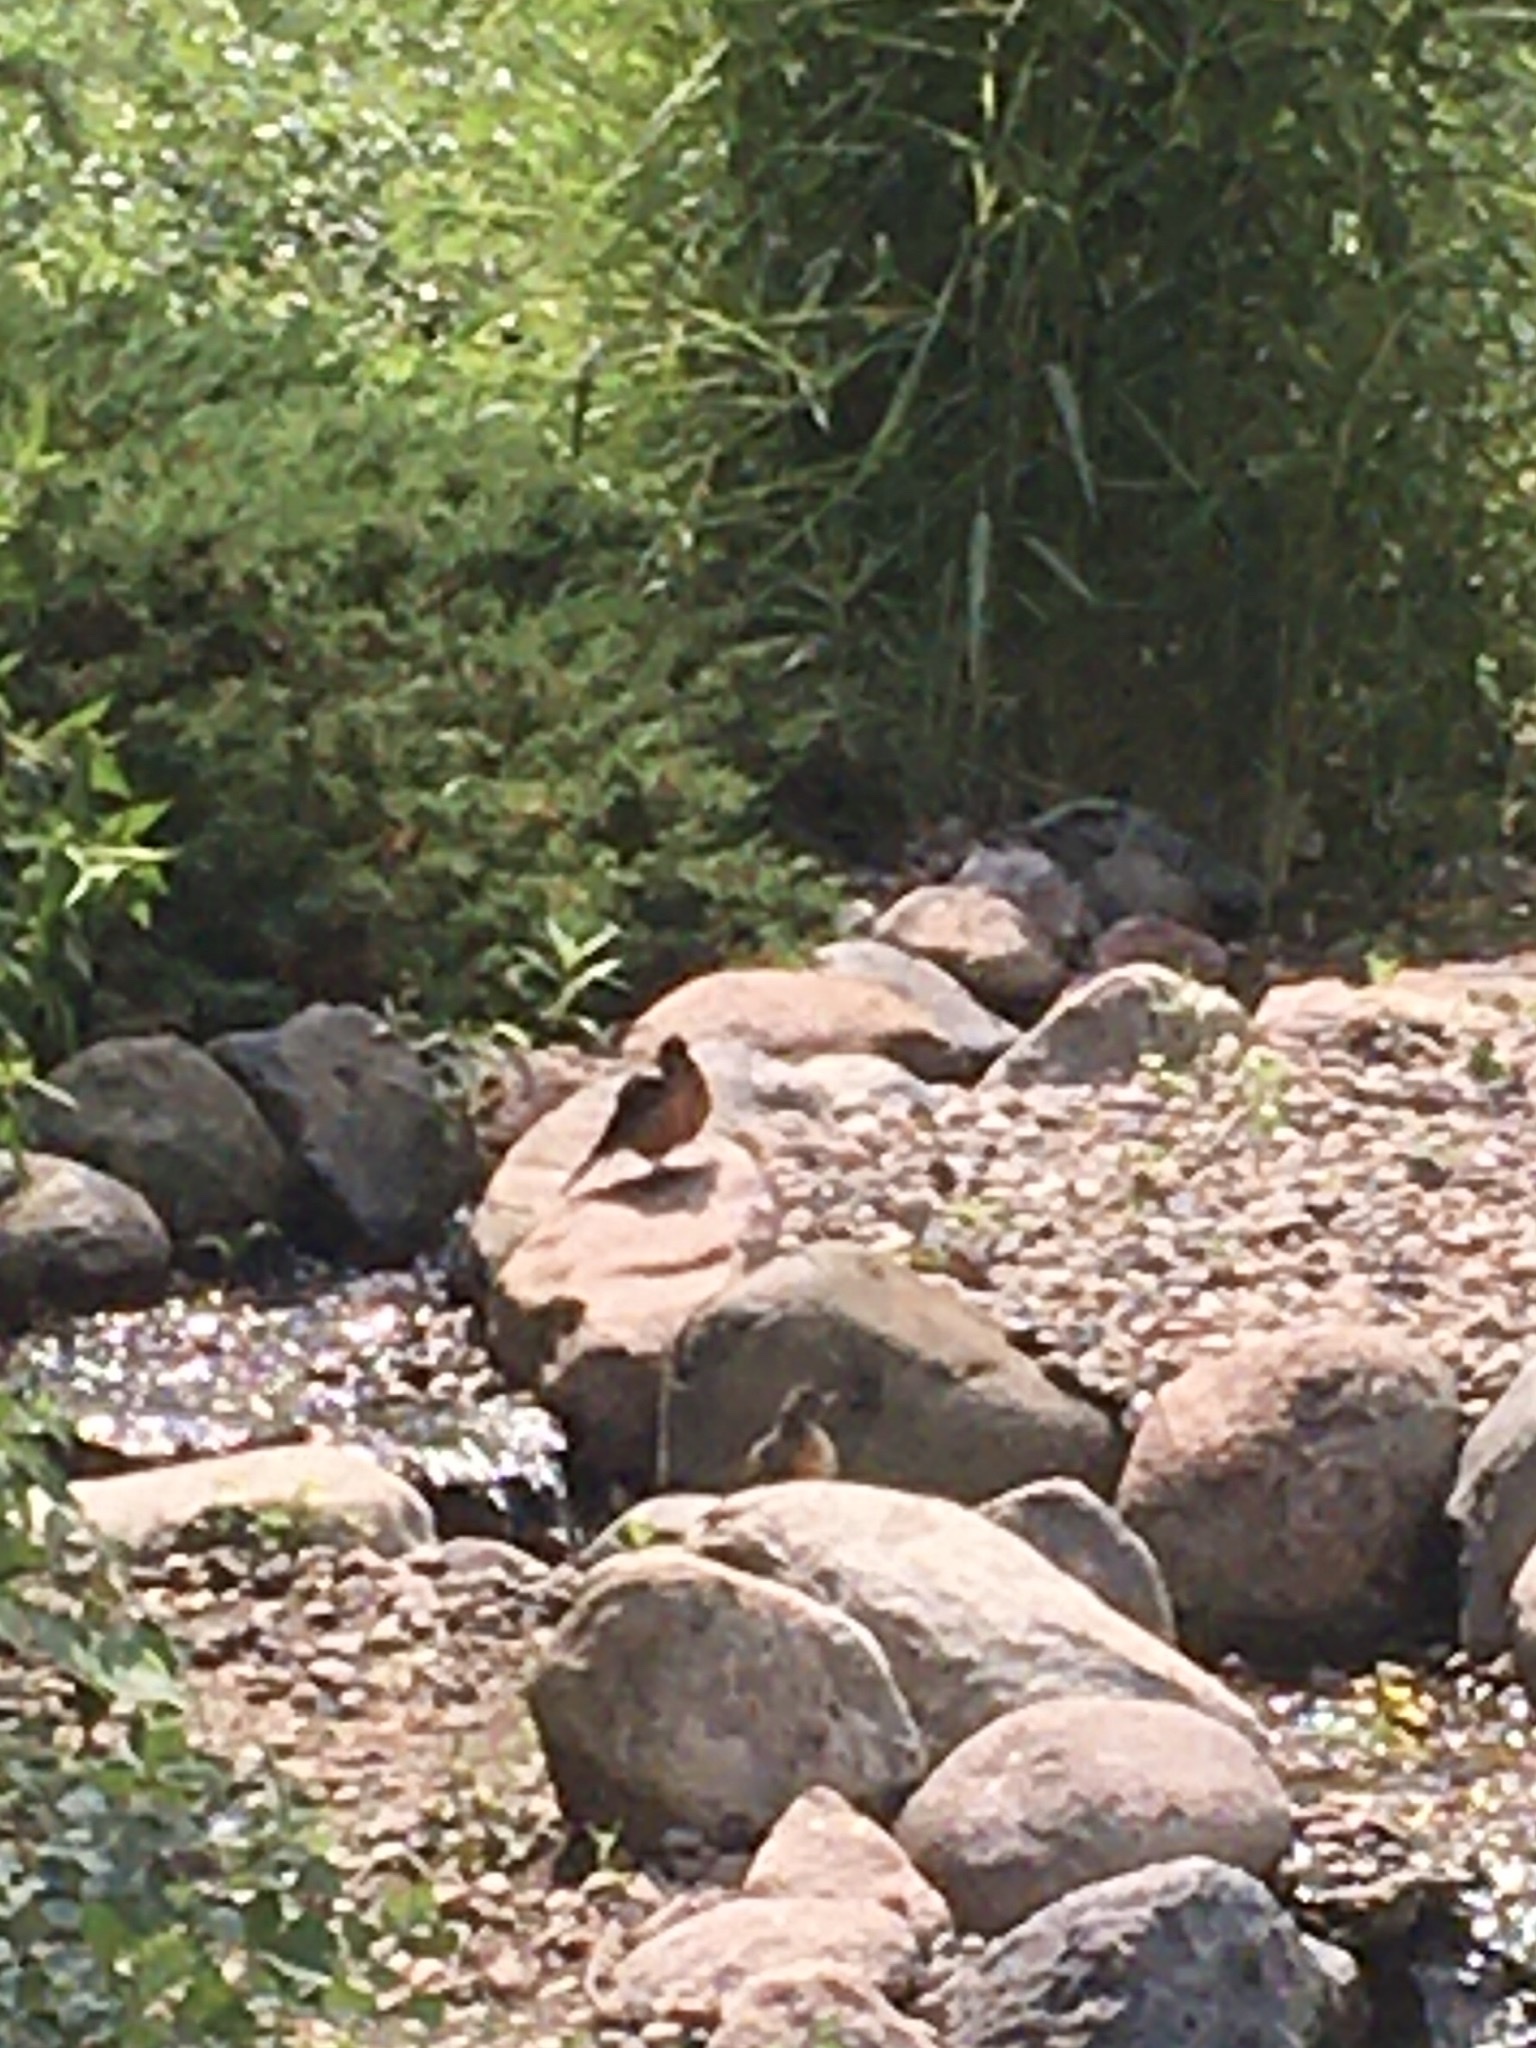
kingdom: Animalia
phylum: Chordata
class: Aves
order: Passeriformes
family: Turdidae
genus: Turdus
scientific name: Turdus migratorius
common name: American robin
